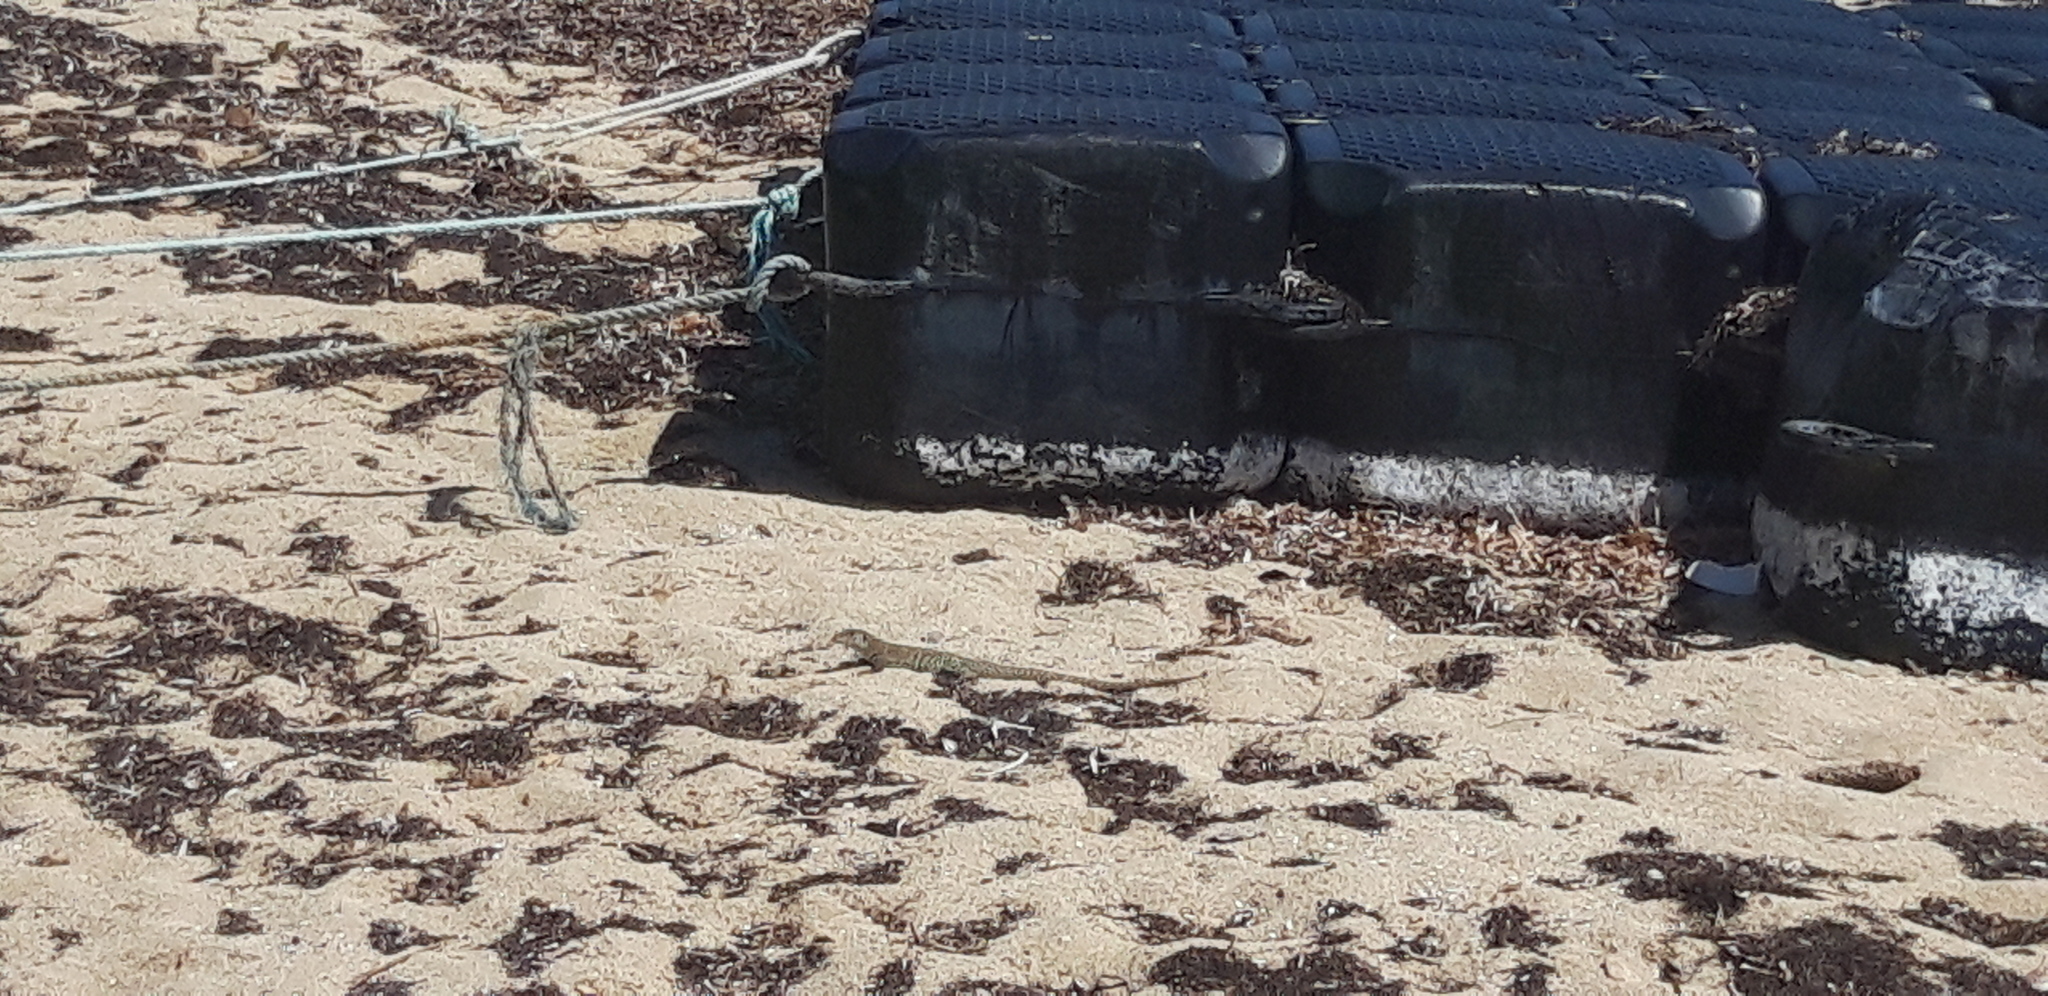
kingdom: Animalia
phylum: Chordata
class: Squamata
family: Teiidae
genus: Pholidoscelis
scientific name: Pholidoscelis plei
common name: Anguilla bank ameiva
